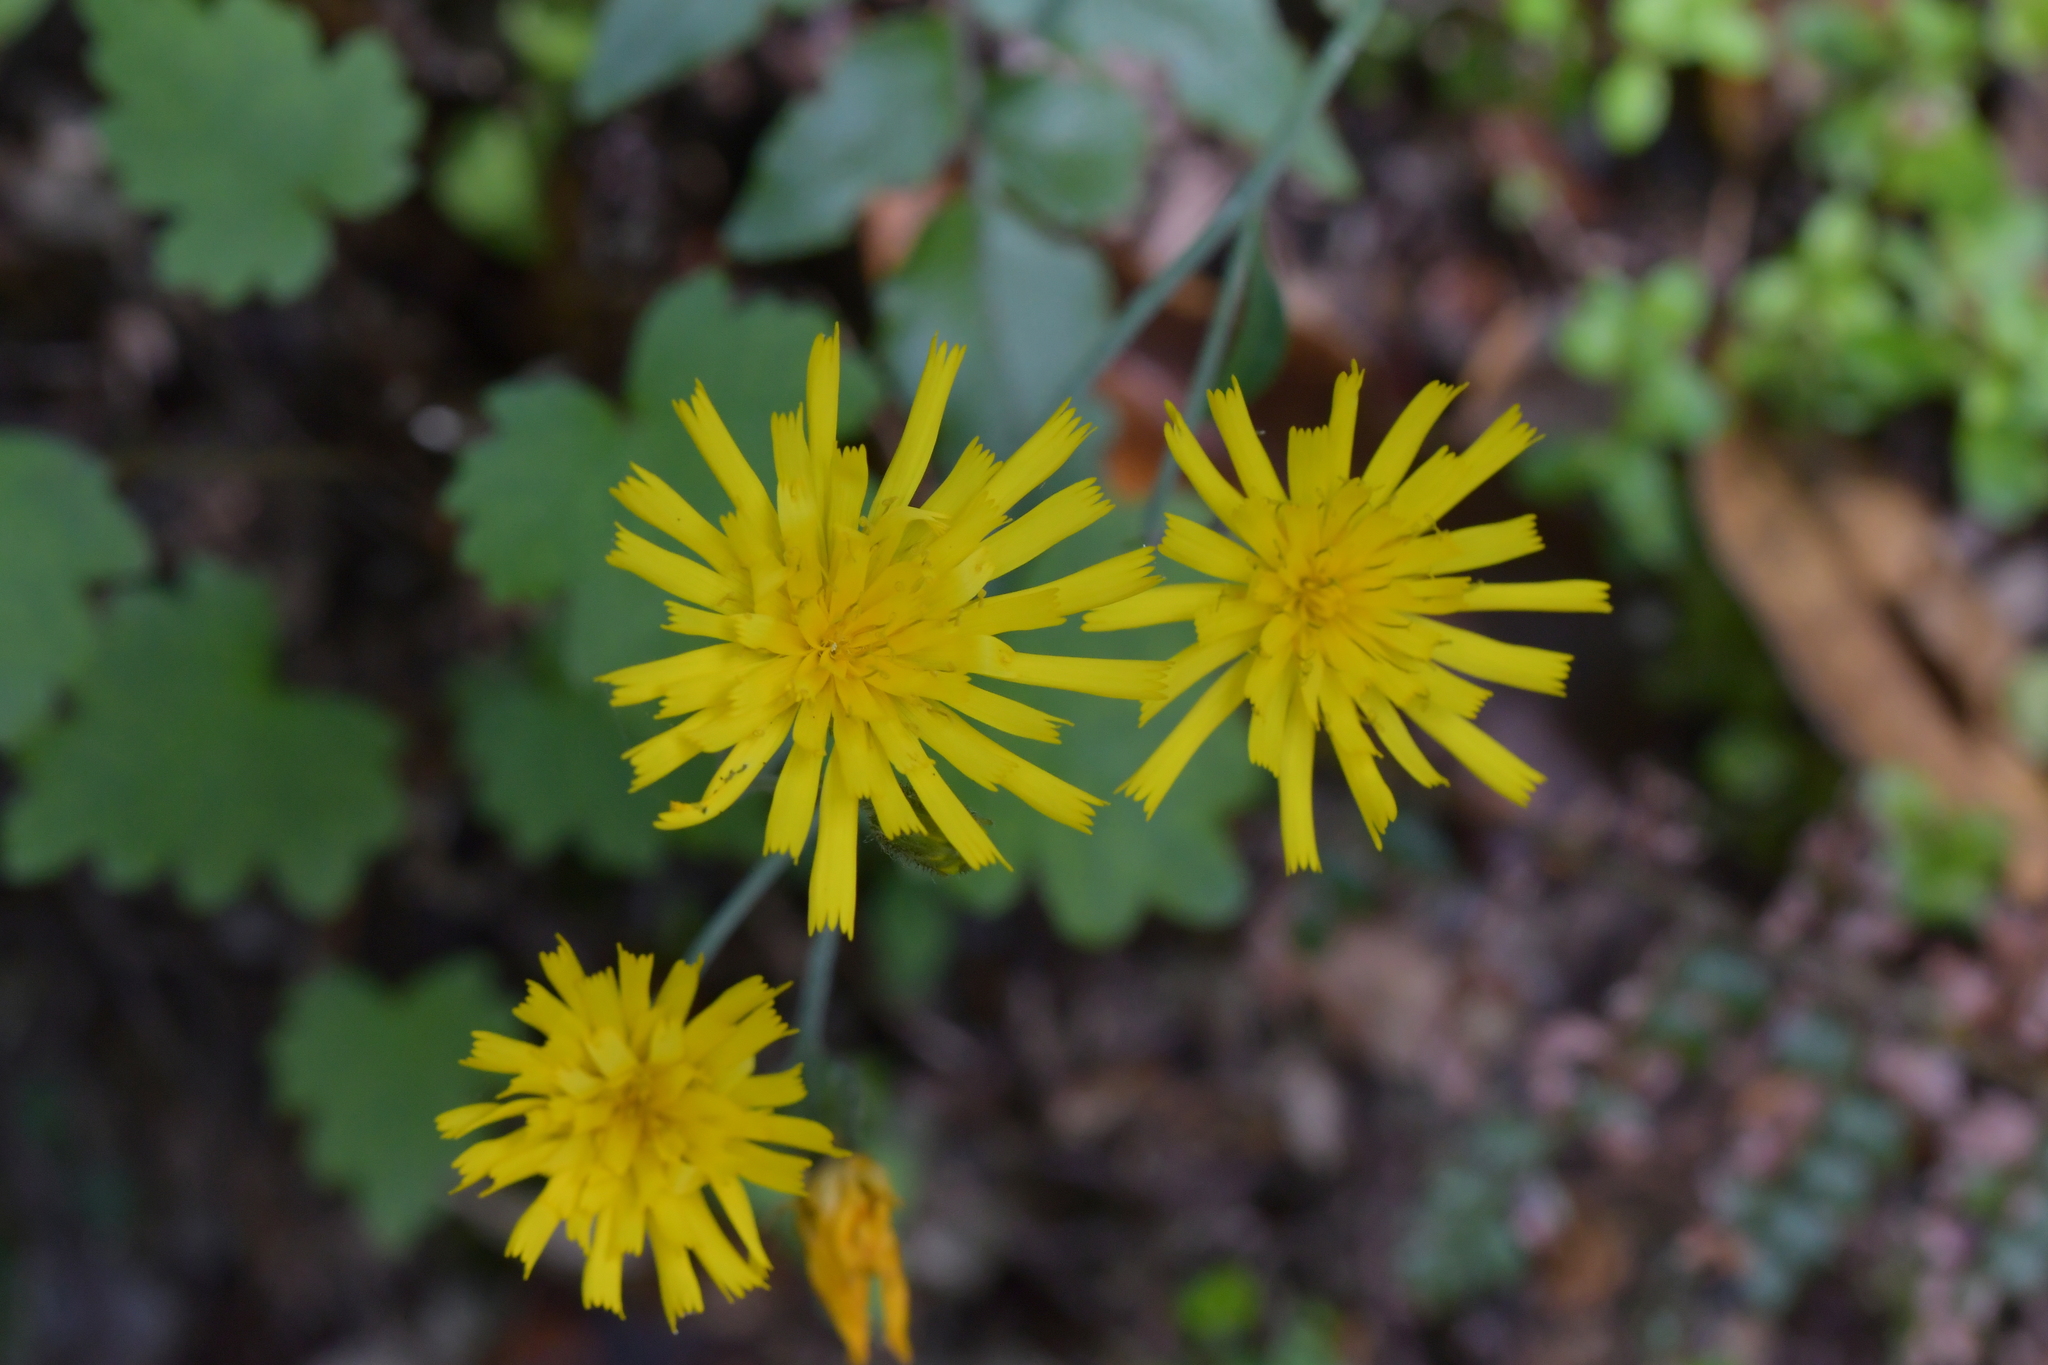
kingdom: Plantae
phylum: Tracheophyta
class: Magnoliopsida
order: Asterales
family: Asteraceae
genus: Hieracium
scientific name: Hieracium lepidulum
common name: Irregular-toothed hawkweed
